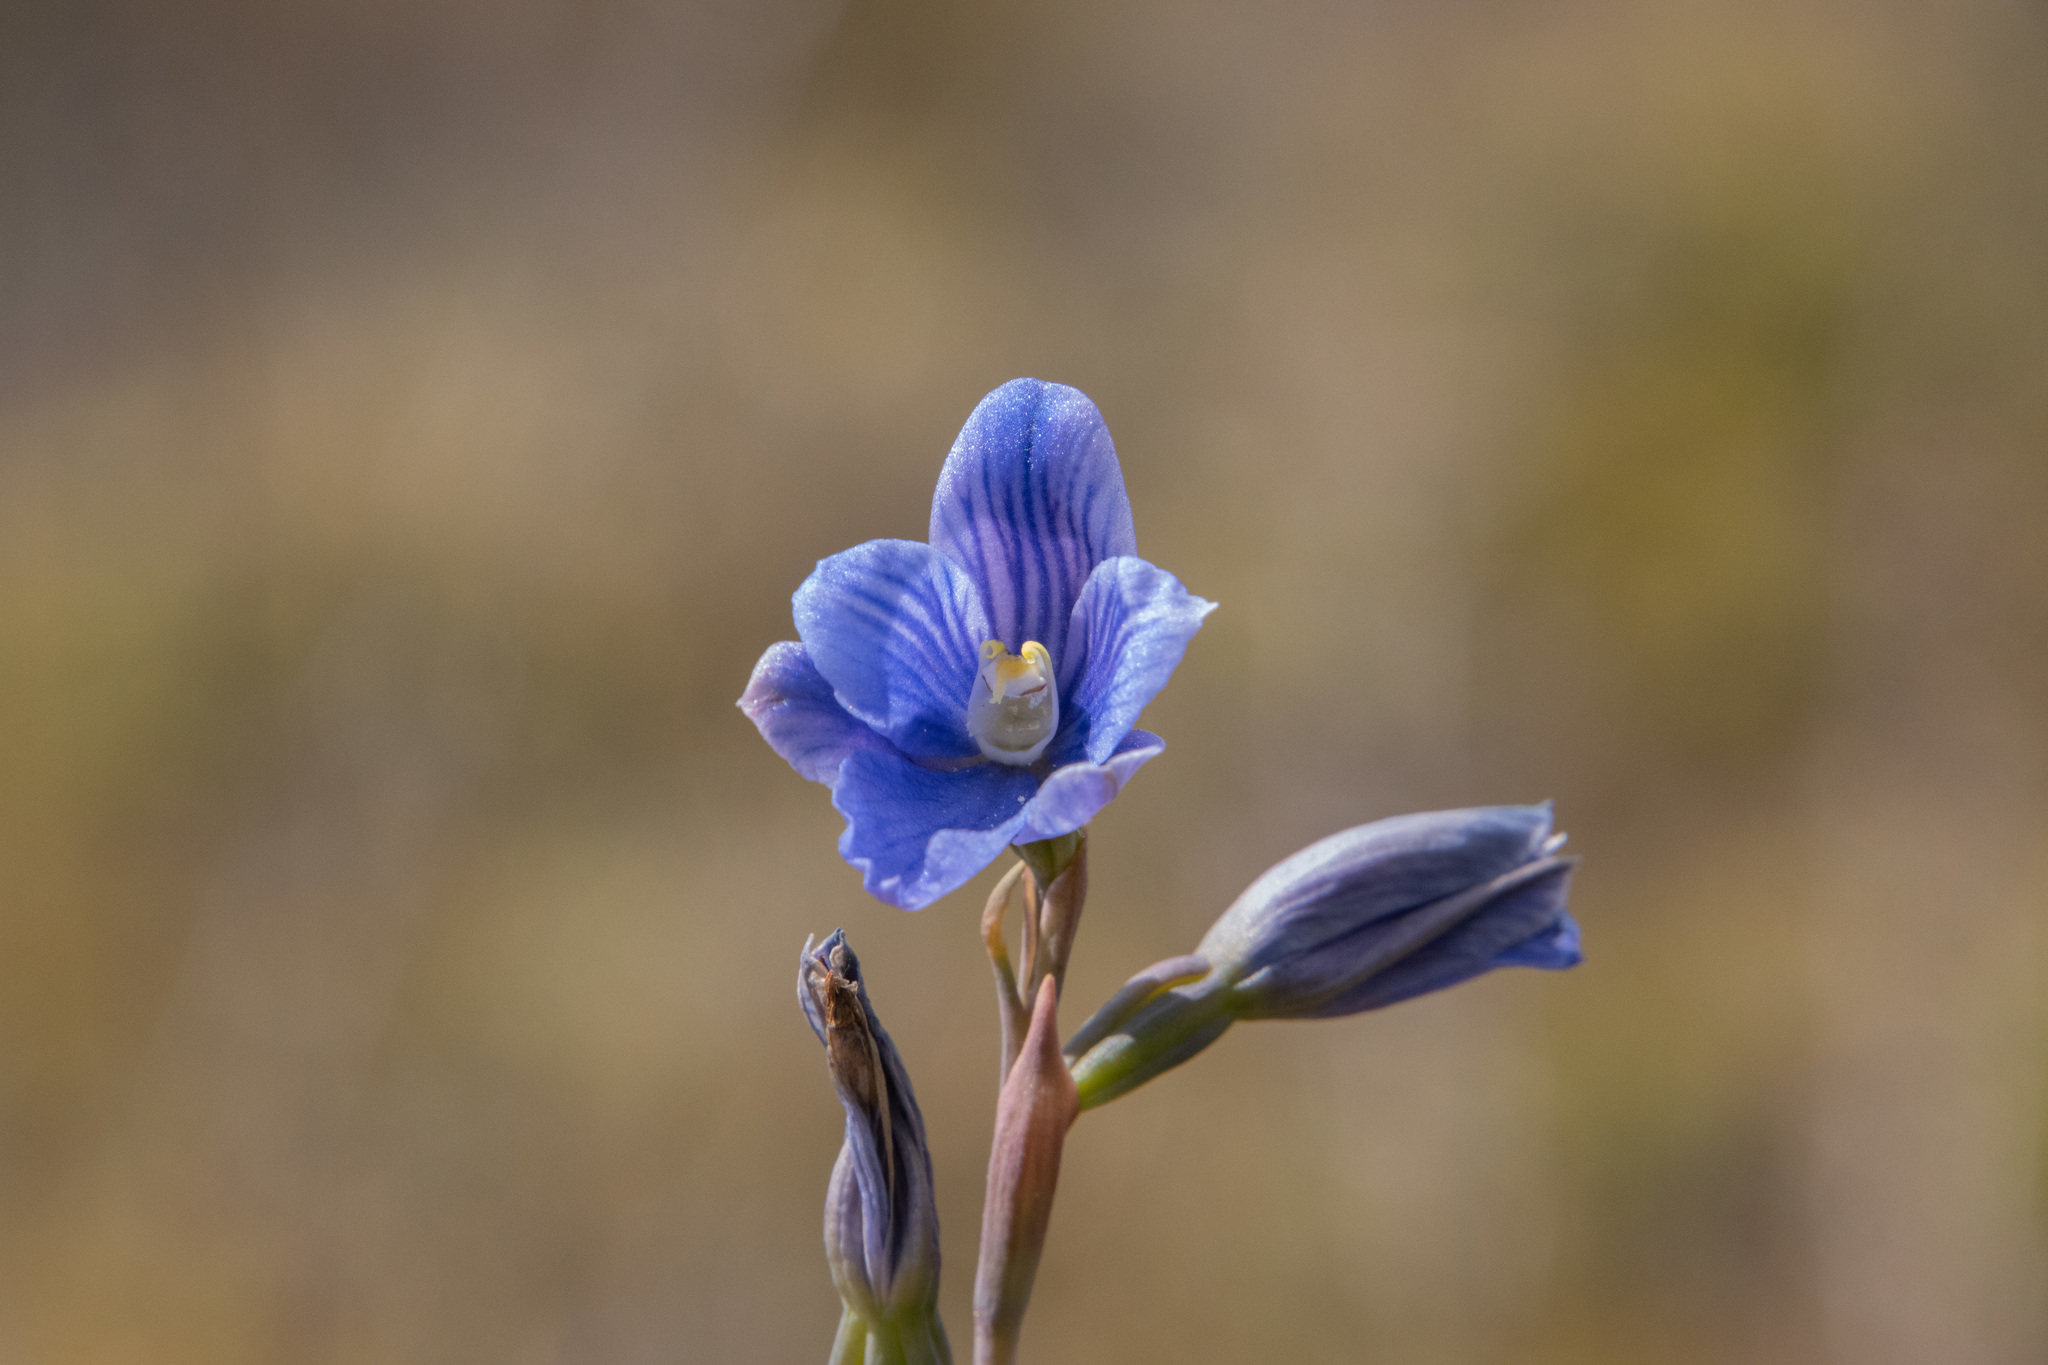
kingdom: Plantae
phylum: Tracheophyta
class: Liliopsida
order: Asparagales
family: Orchidaceae
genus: Thelymitra
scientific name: Thelymitra cyanea
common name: Blue sun-orchid
